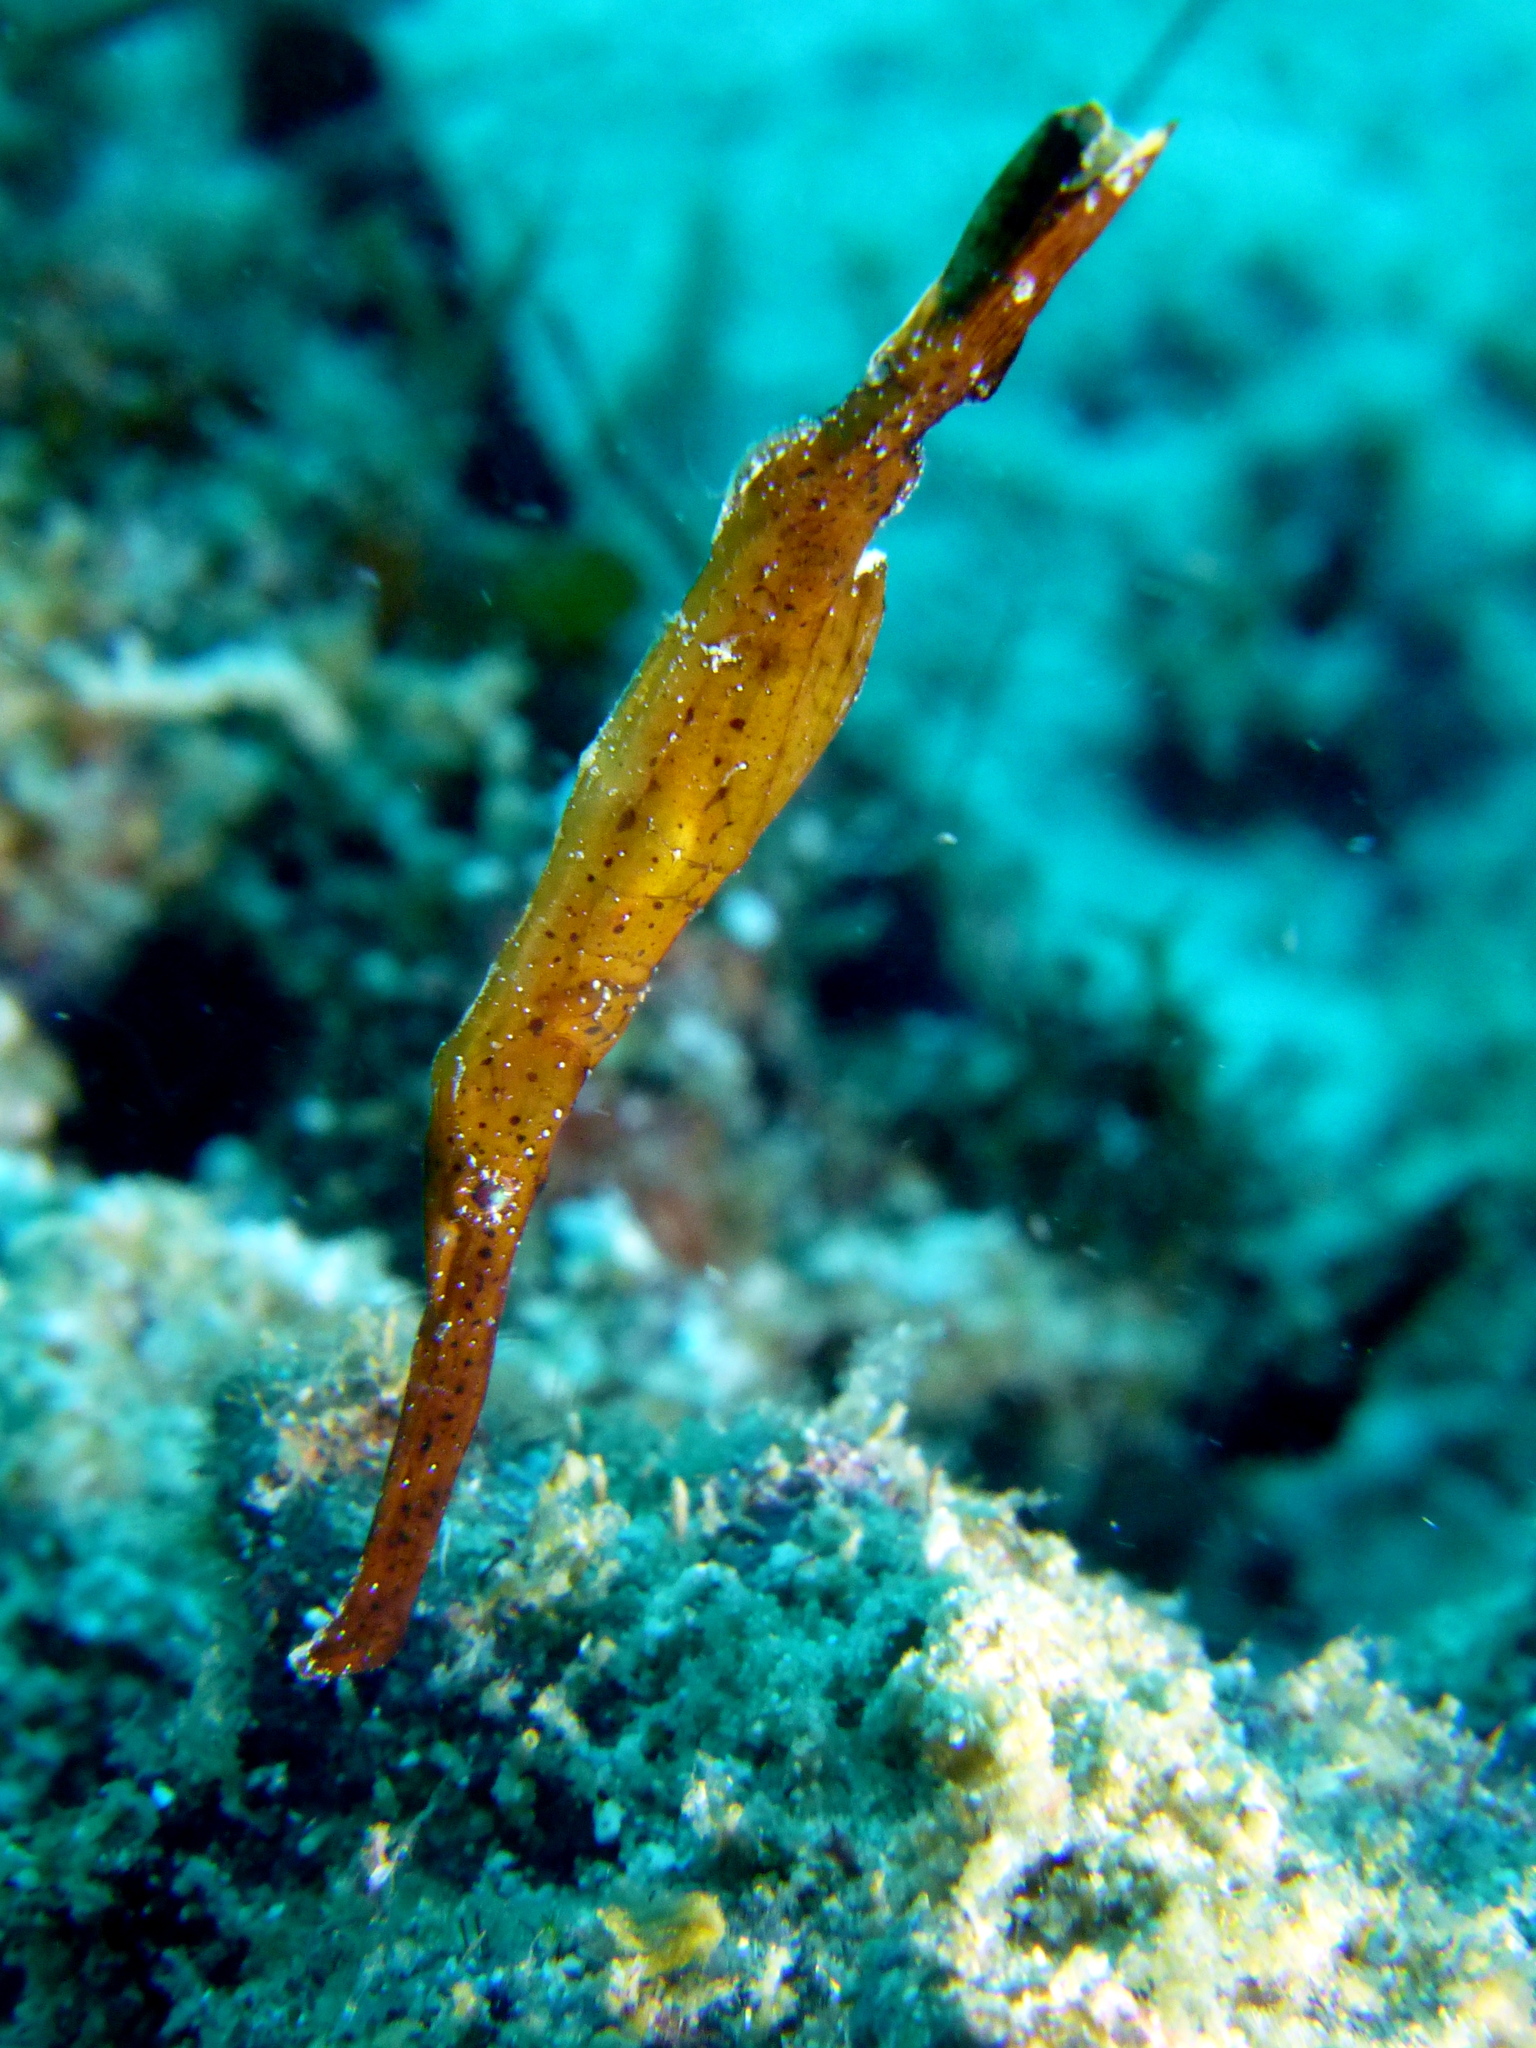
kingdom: Animalia
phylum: Chordata
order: Syngnathiformes
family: Solenostomidae
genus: Solenostomus
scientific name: Solenostomus cyanopterus
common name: Blue-finned ghost pipefish
